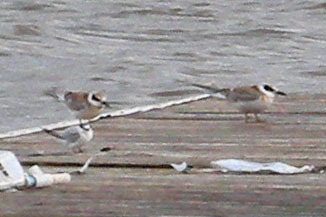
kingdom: Animalia
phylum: Chordata
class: Aves
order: Charadriiformes
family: Laridae
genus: Sternula
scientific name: Sternula antillarum
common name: Least tern
